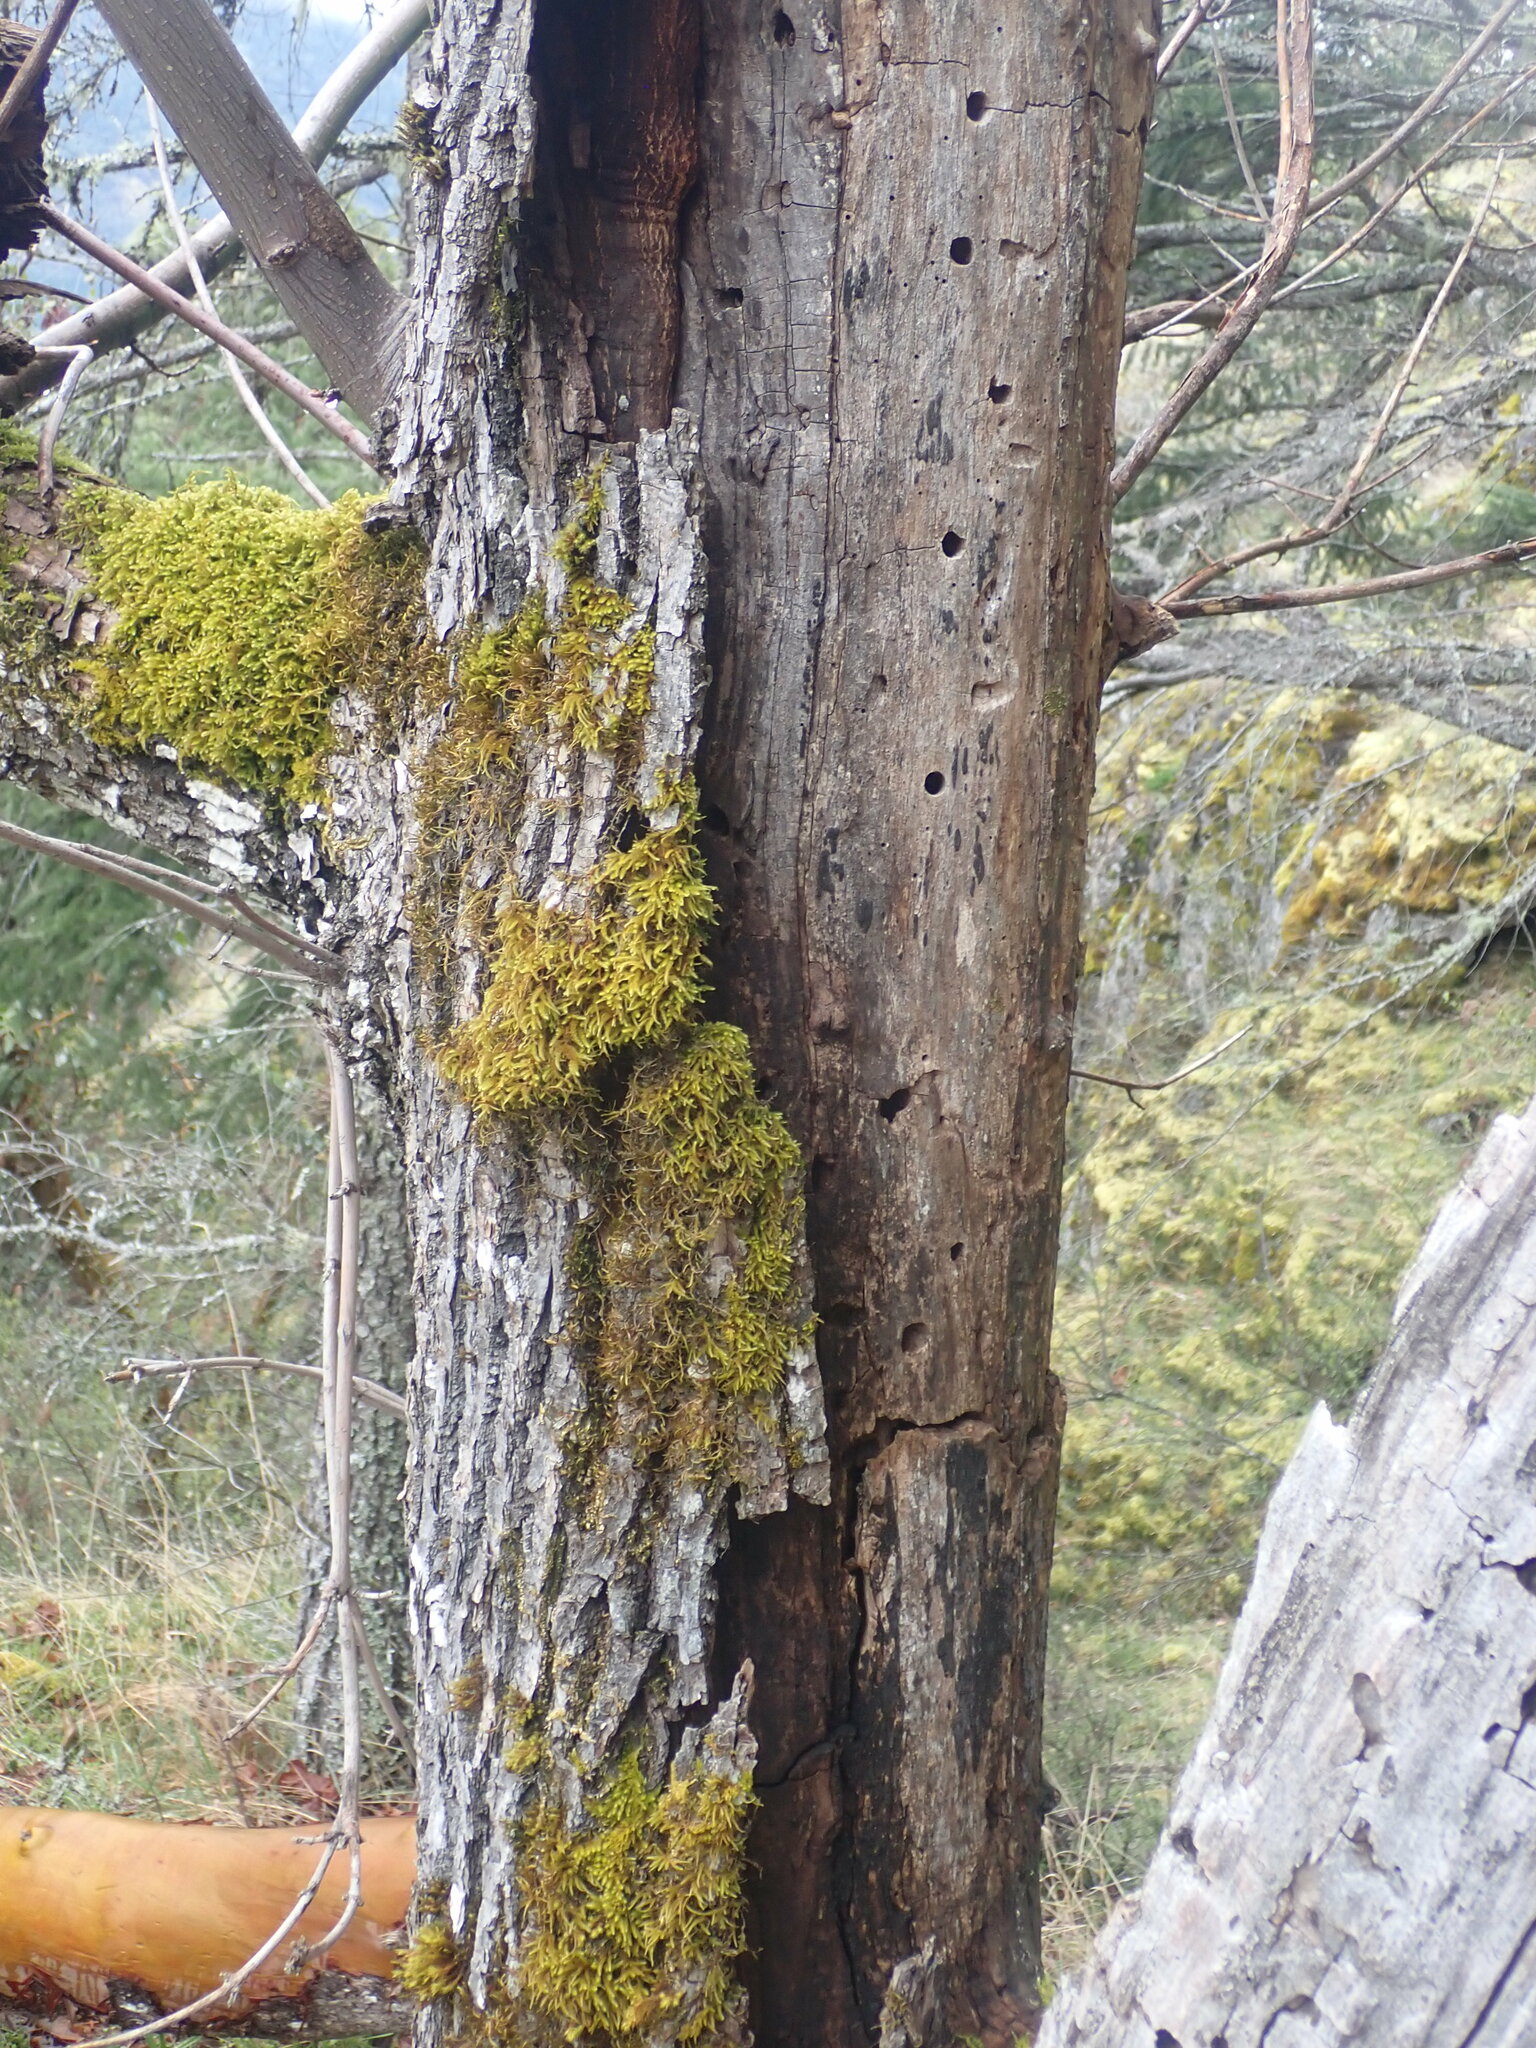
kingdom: Plantae
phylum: Tracheophyta
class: Magnoliopsida
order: Sapindales
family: Sapindaceae
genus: Acer
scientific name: Acer macrophyllum
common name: Oregon maple
